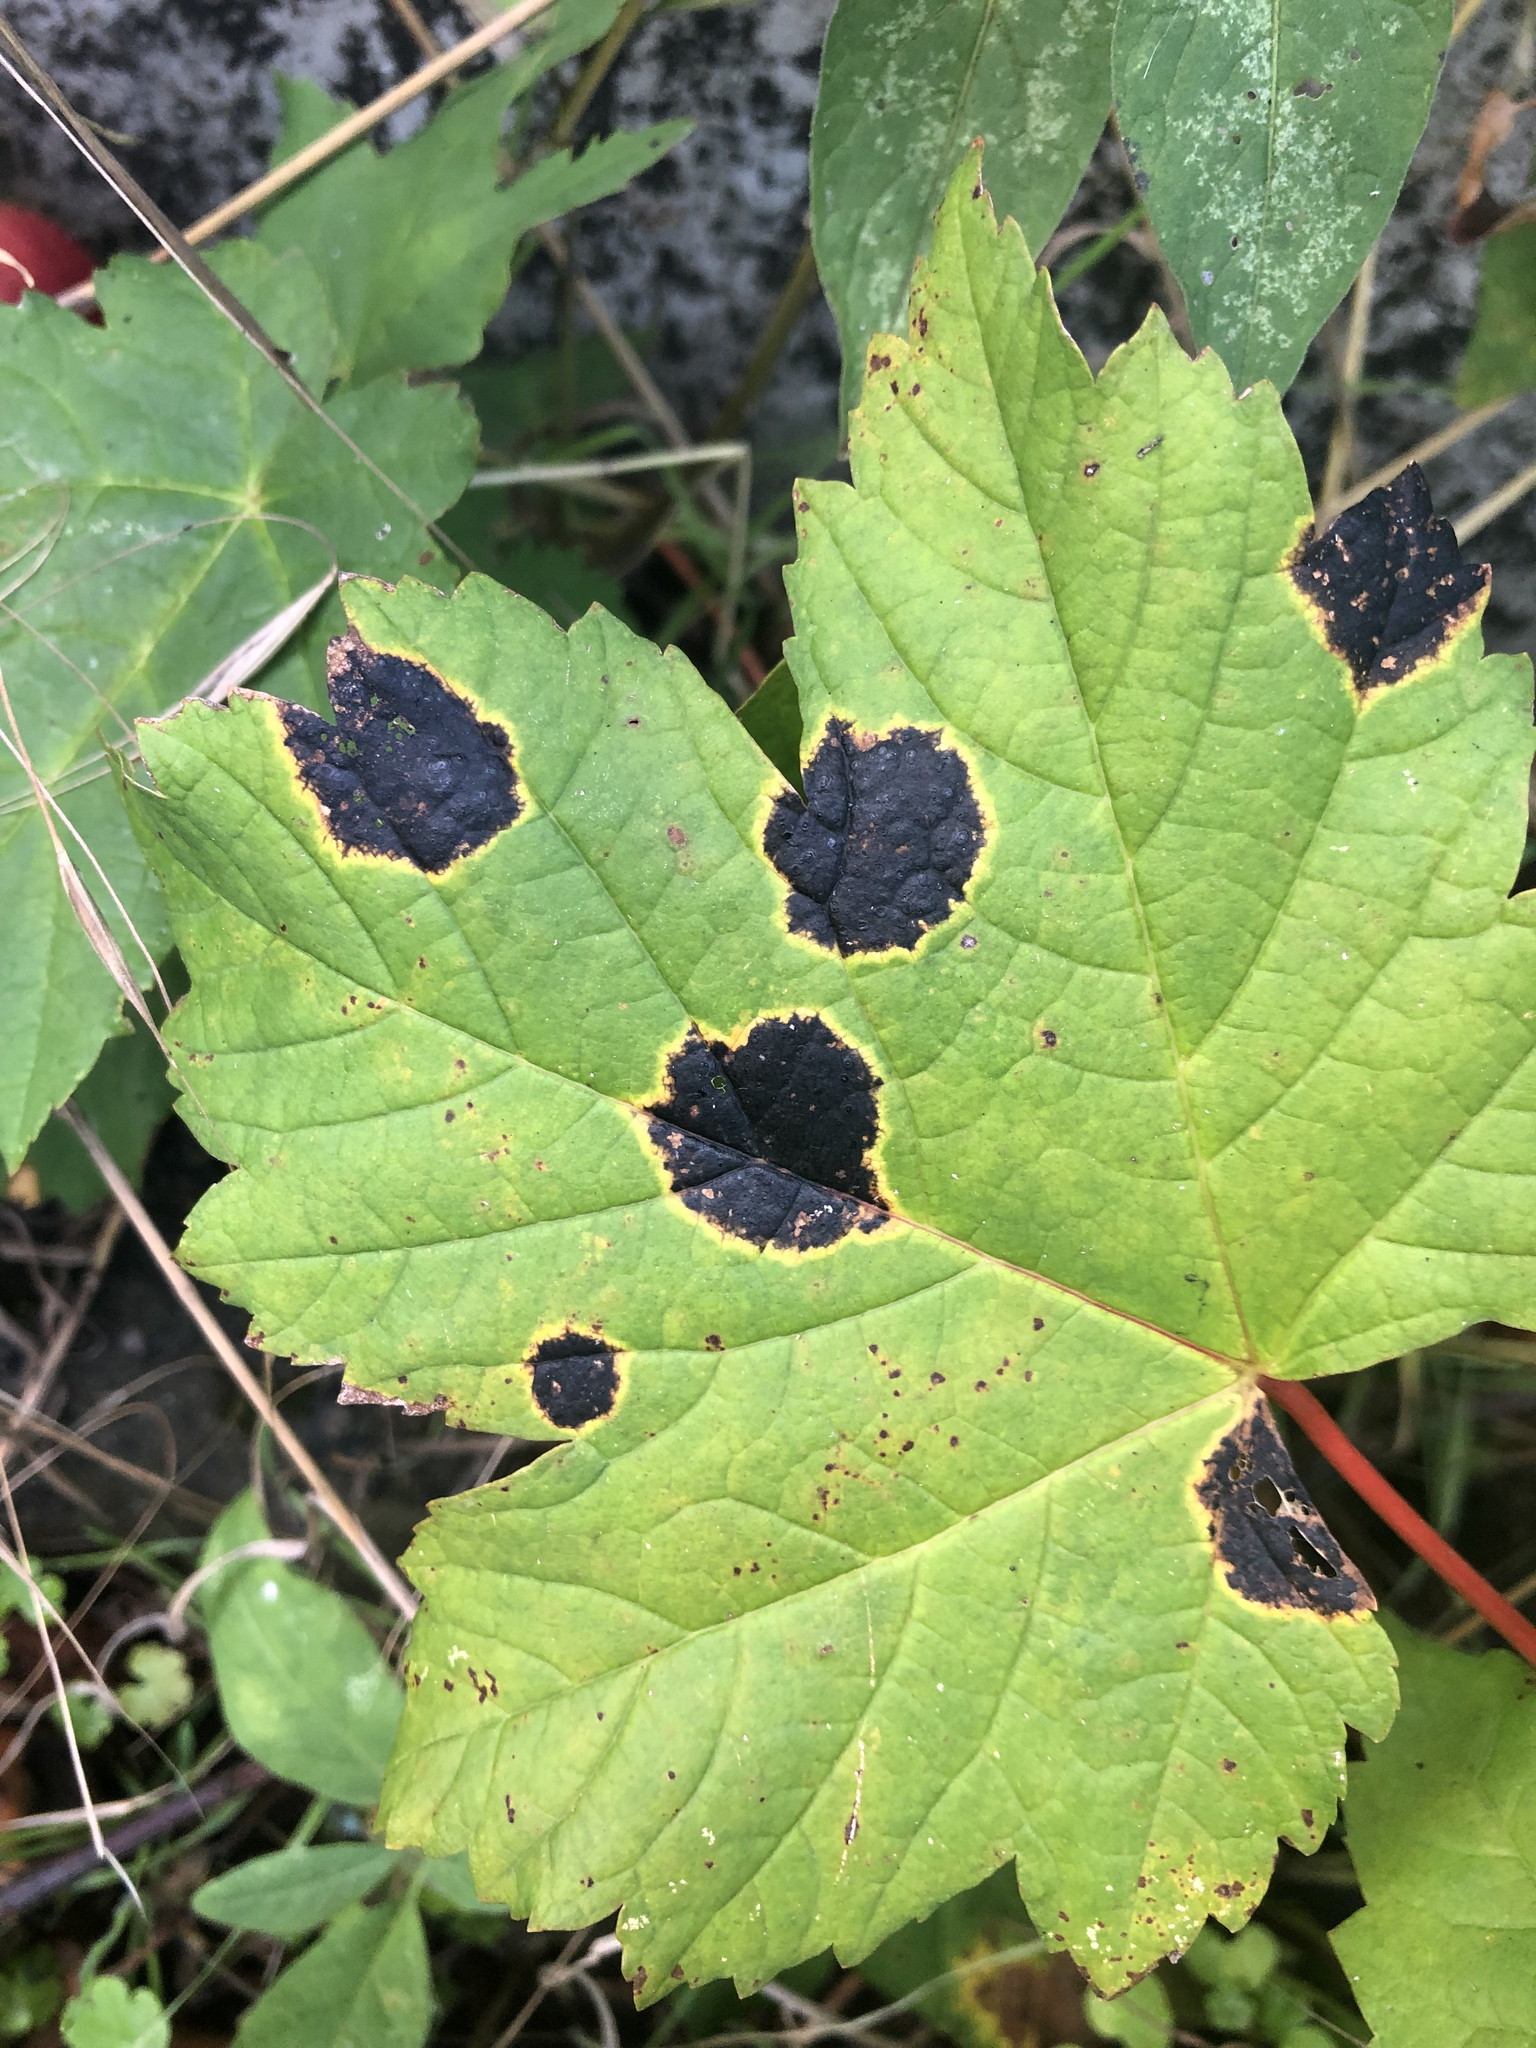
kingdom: Fungi
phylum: Ascomycota
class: Leotiomycetes
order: Rhytismatales
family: Rhytismataceae
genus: Rhytisma
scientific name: Rhytisma acerinum
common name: European tar spot
